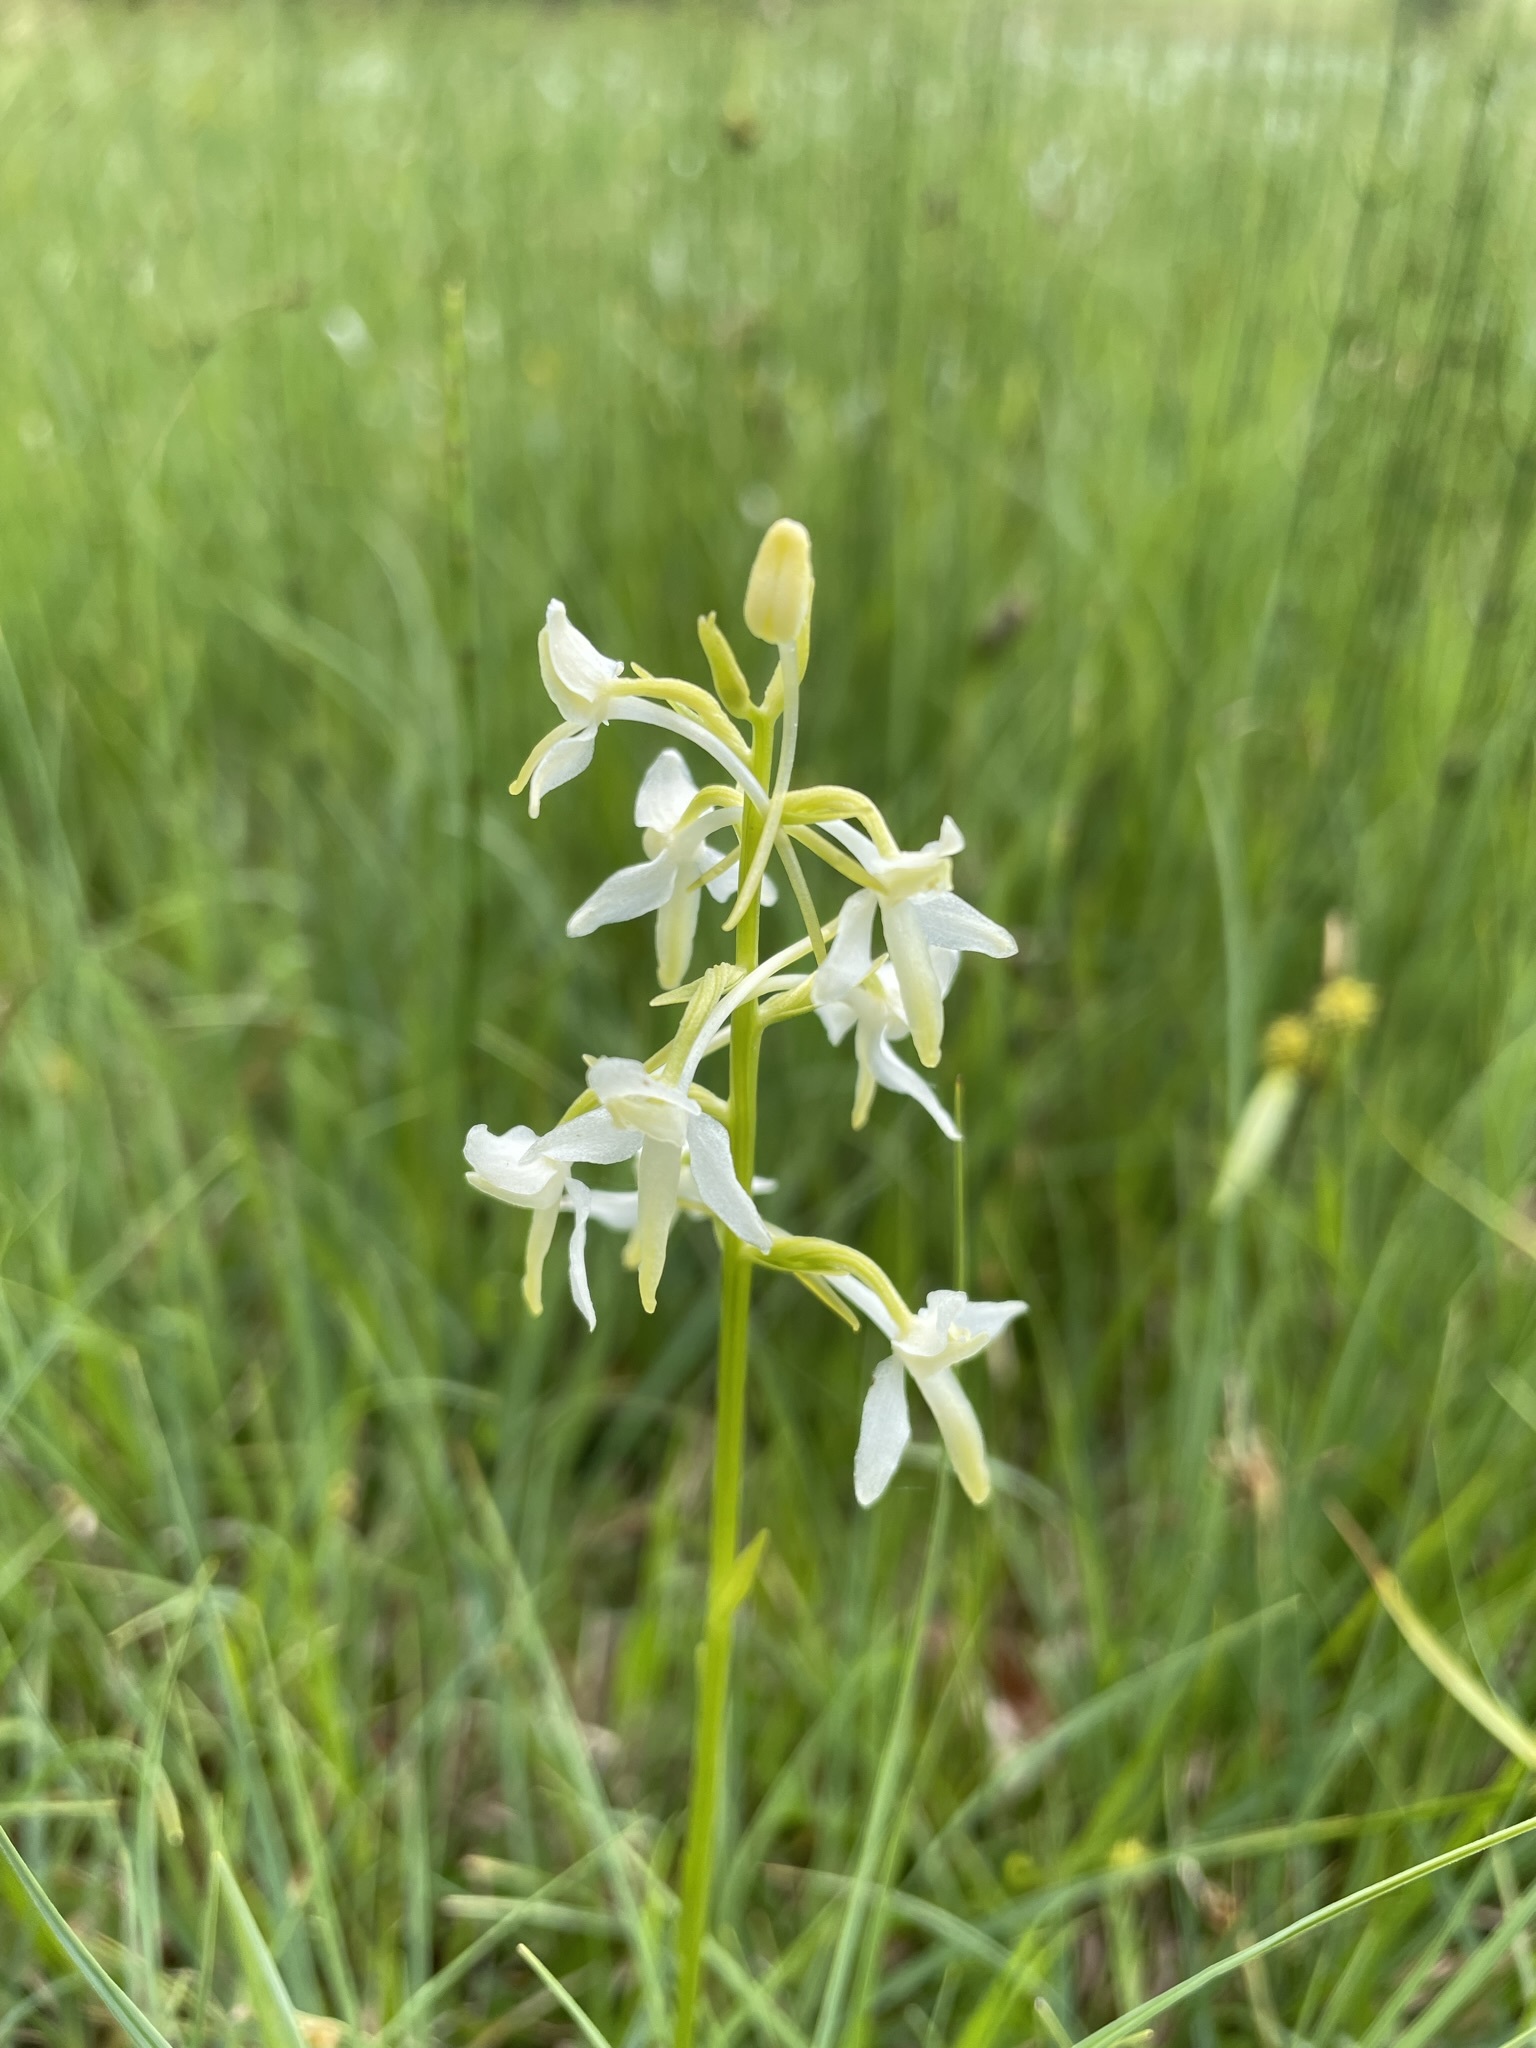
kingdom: Plantae
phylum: Tracheophyta
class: Liliopsida
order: Asparagales
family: Orchidaceae
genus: Platanthera
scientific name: Platanthera bifolia
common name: Lesser butterfly-orchid
